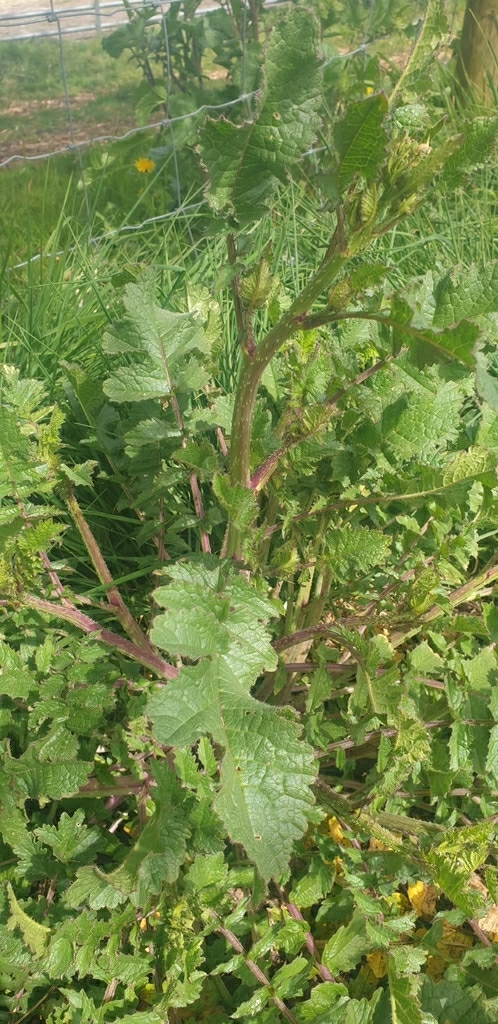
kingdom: Plantae
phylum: Tracheophyta
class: Magnoliopsida
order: Brassicales
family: Brassicaceae
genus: Raphanus
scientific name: Raphanus raphanistrum
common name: Wild radish
